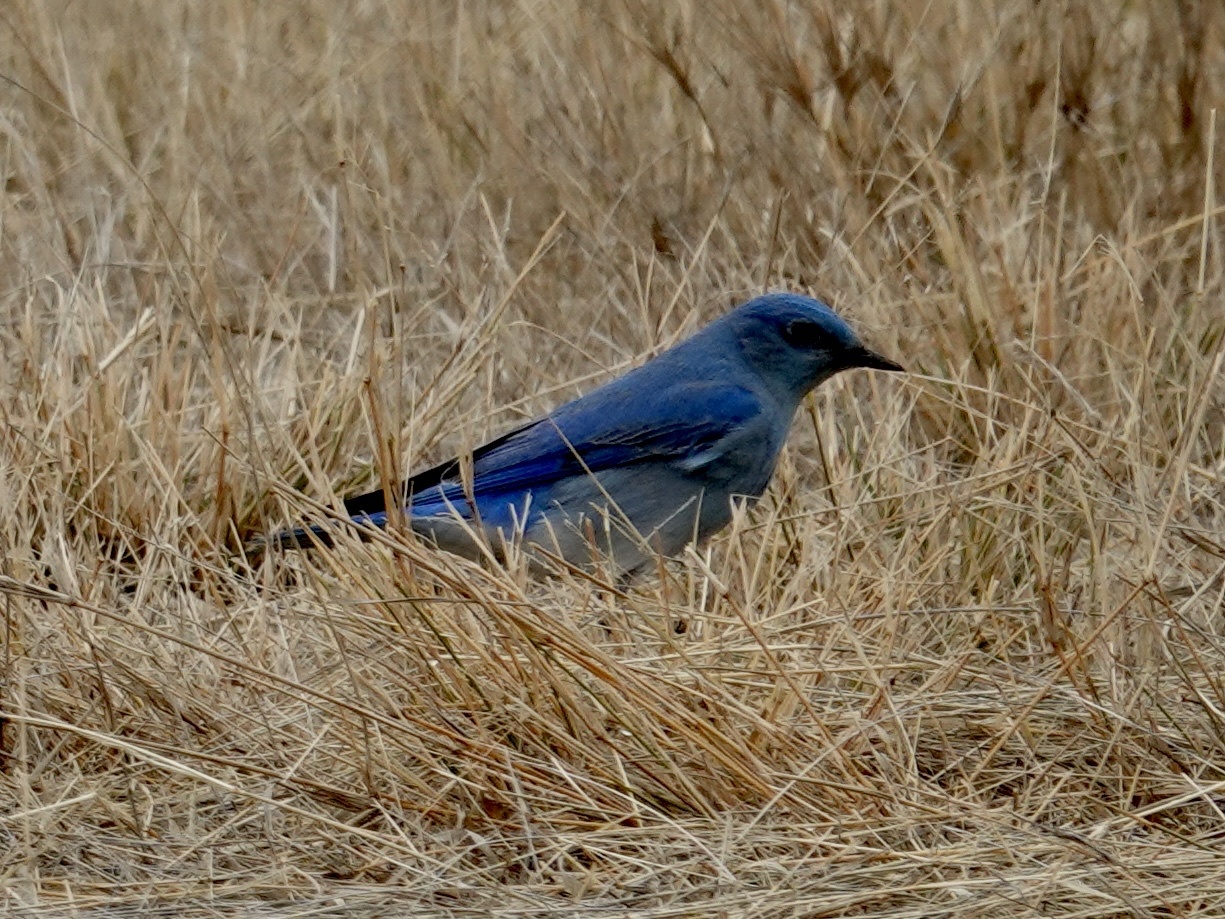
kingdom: Animalia
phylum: Chordata
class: Aves
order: Passeriformes
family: Turdidae
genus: Sialia
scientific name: Sialia currucoides
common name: Mountain bluebird
